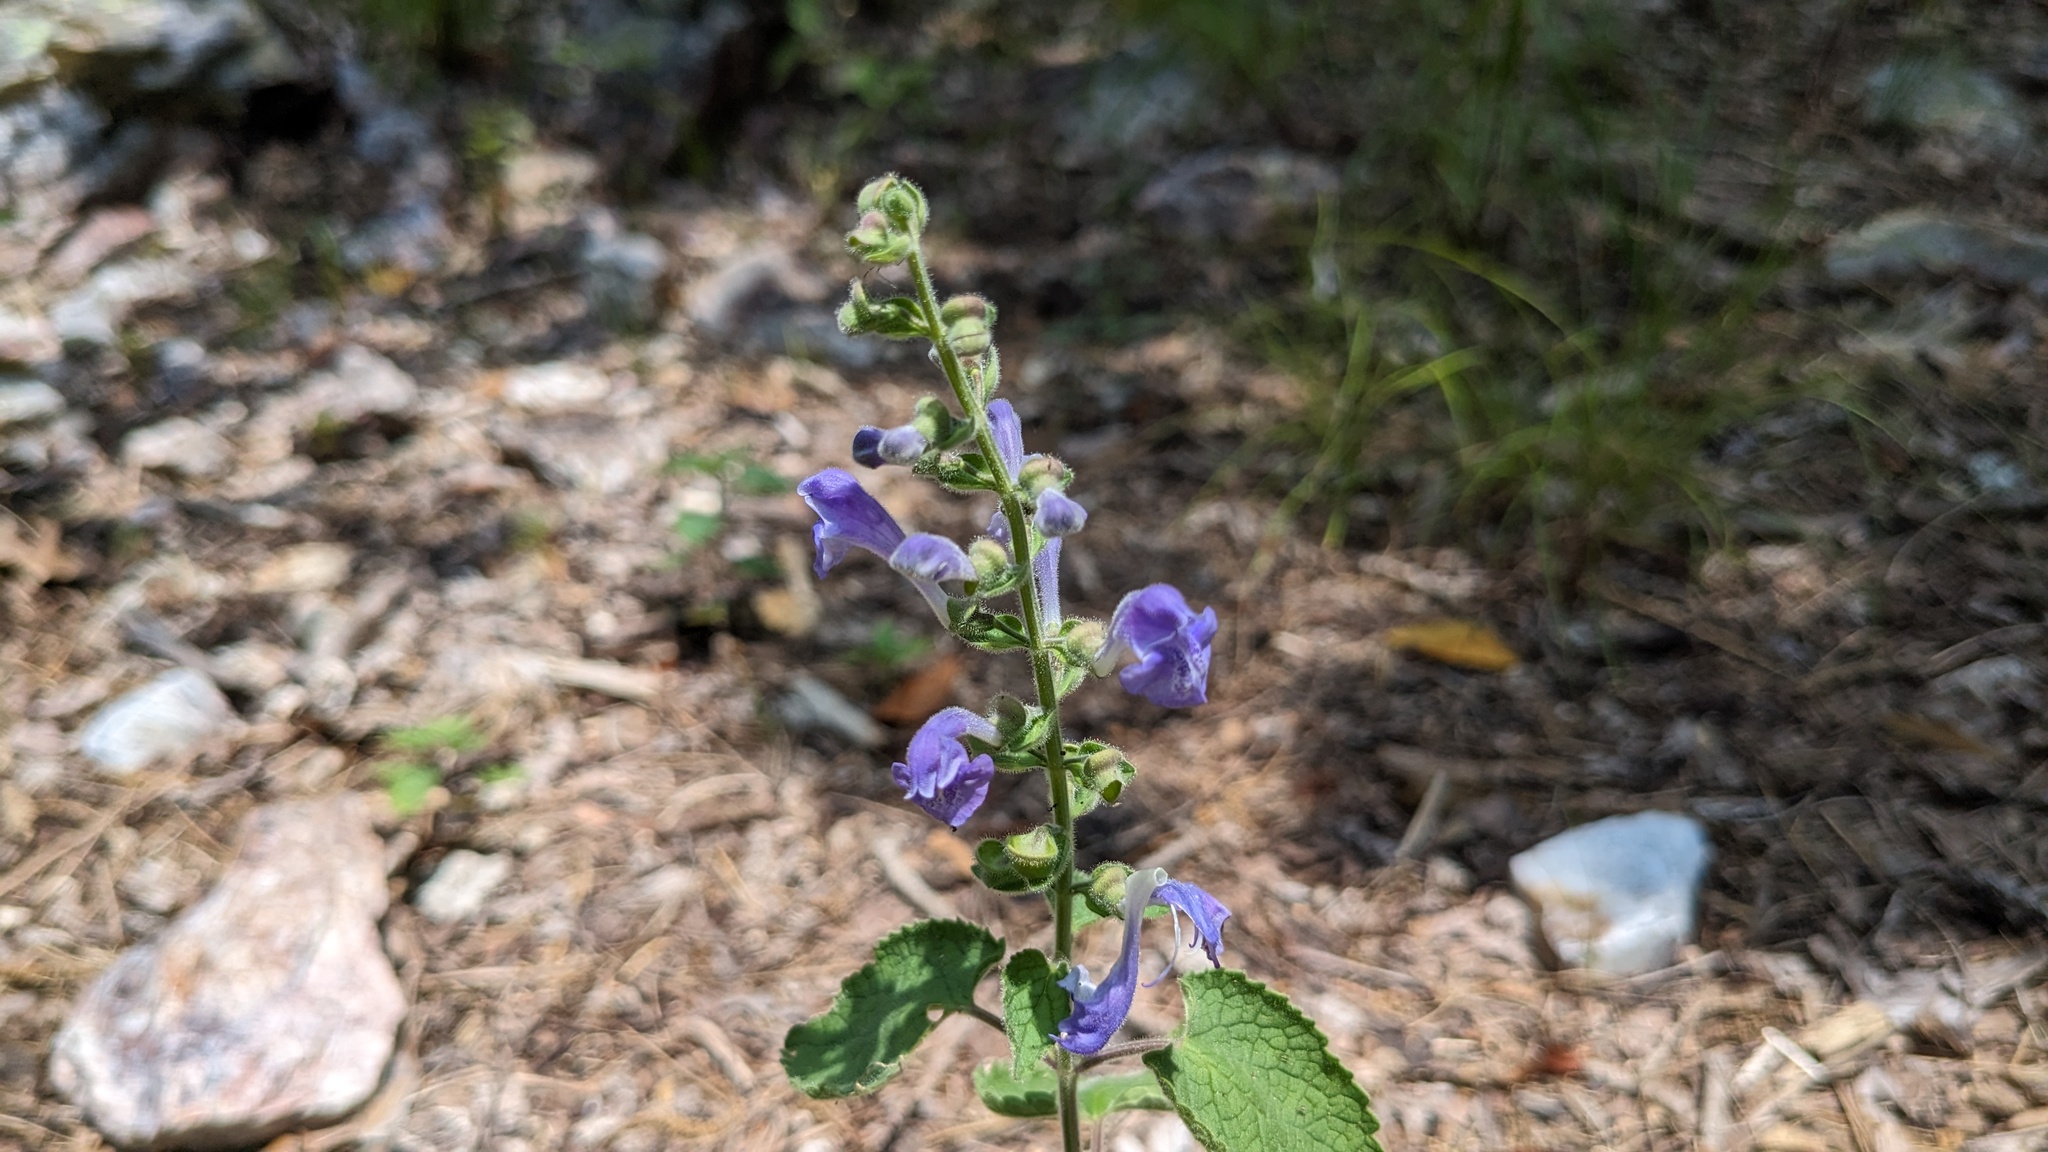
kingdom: Plantae
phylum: Tracheophyta
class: Magnoliopsida
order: Lamiales
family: Lamiaceae
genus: Scutellaria
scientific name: Scutellaria ovata
